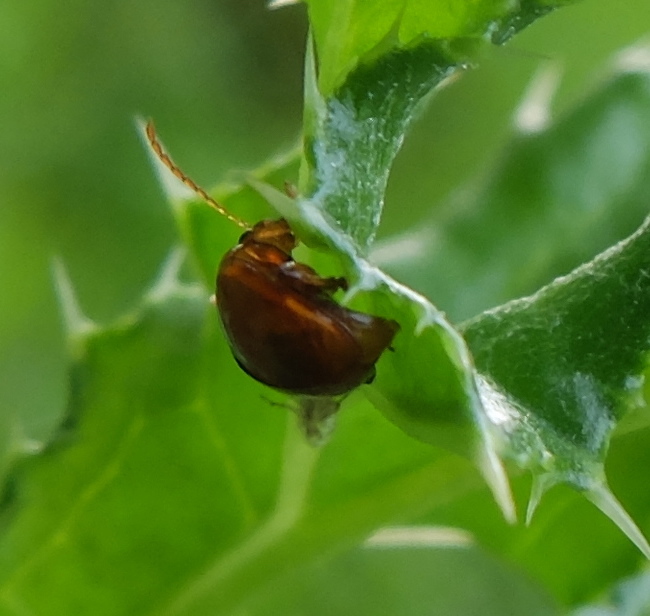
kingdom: Animalia
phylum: Arthropoda
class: Insecta
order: Coleoptera
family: Chrysomelidae
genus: Pistosia
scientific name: Pistosia testacea
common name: Leaf beetle
